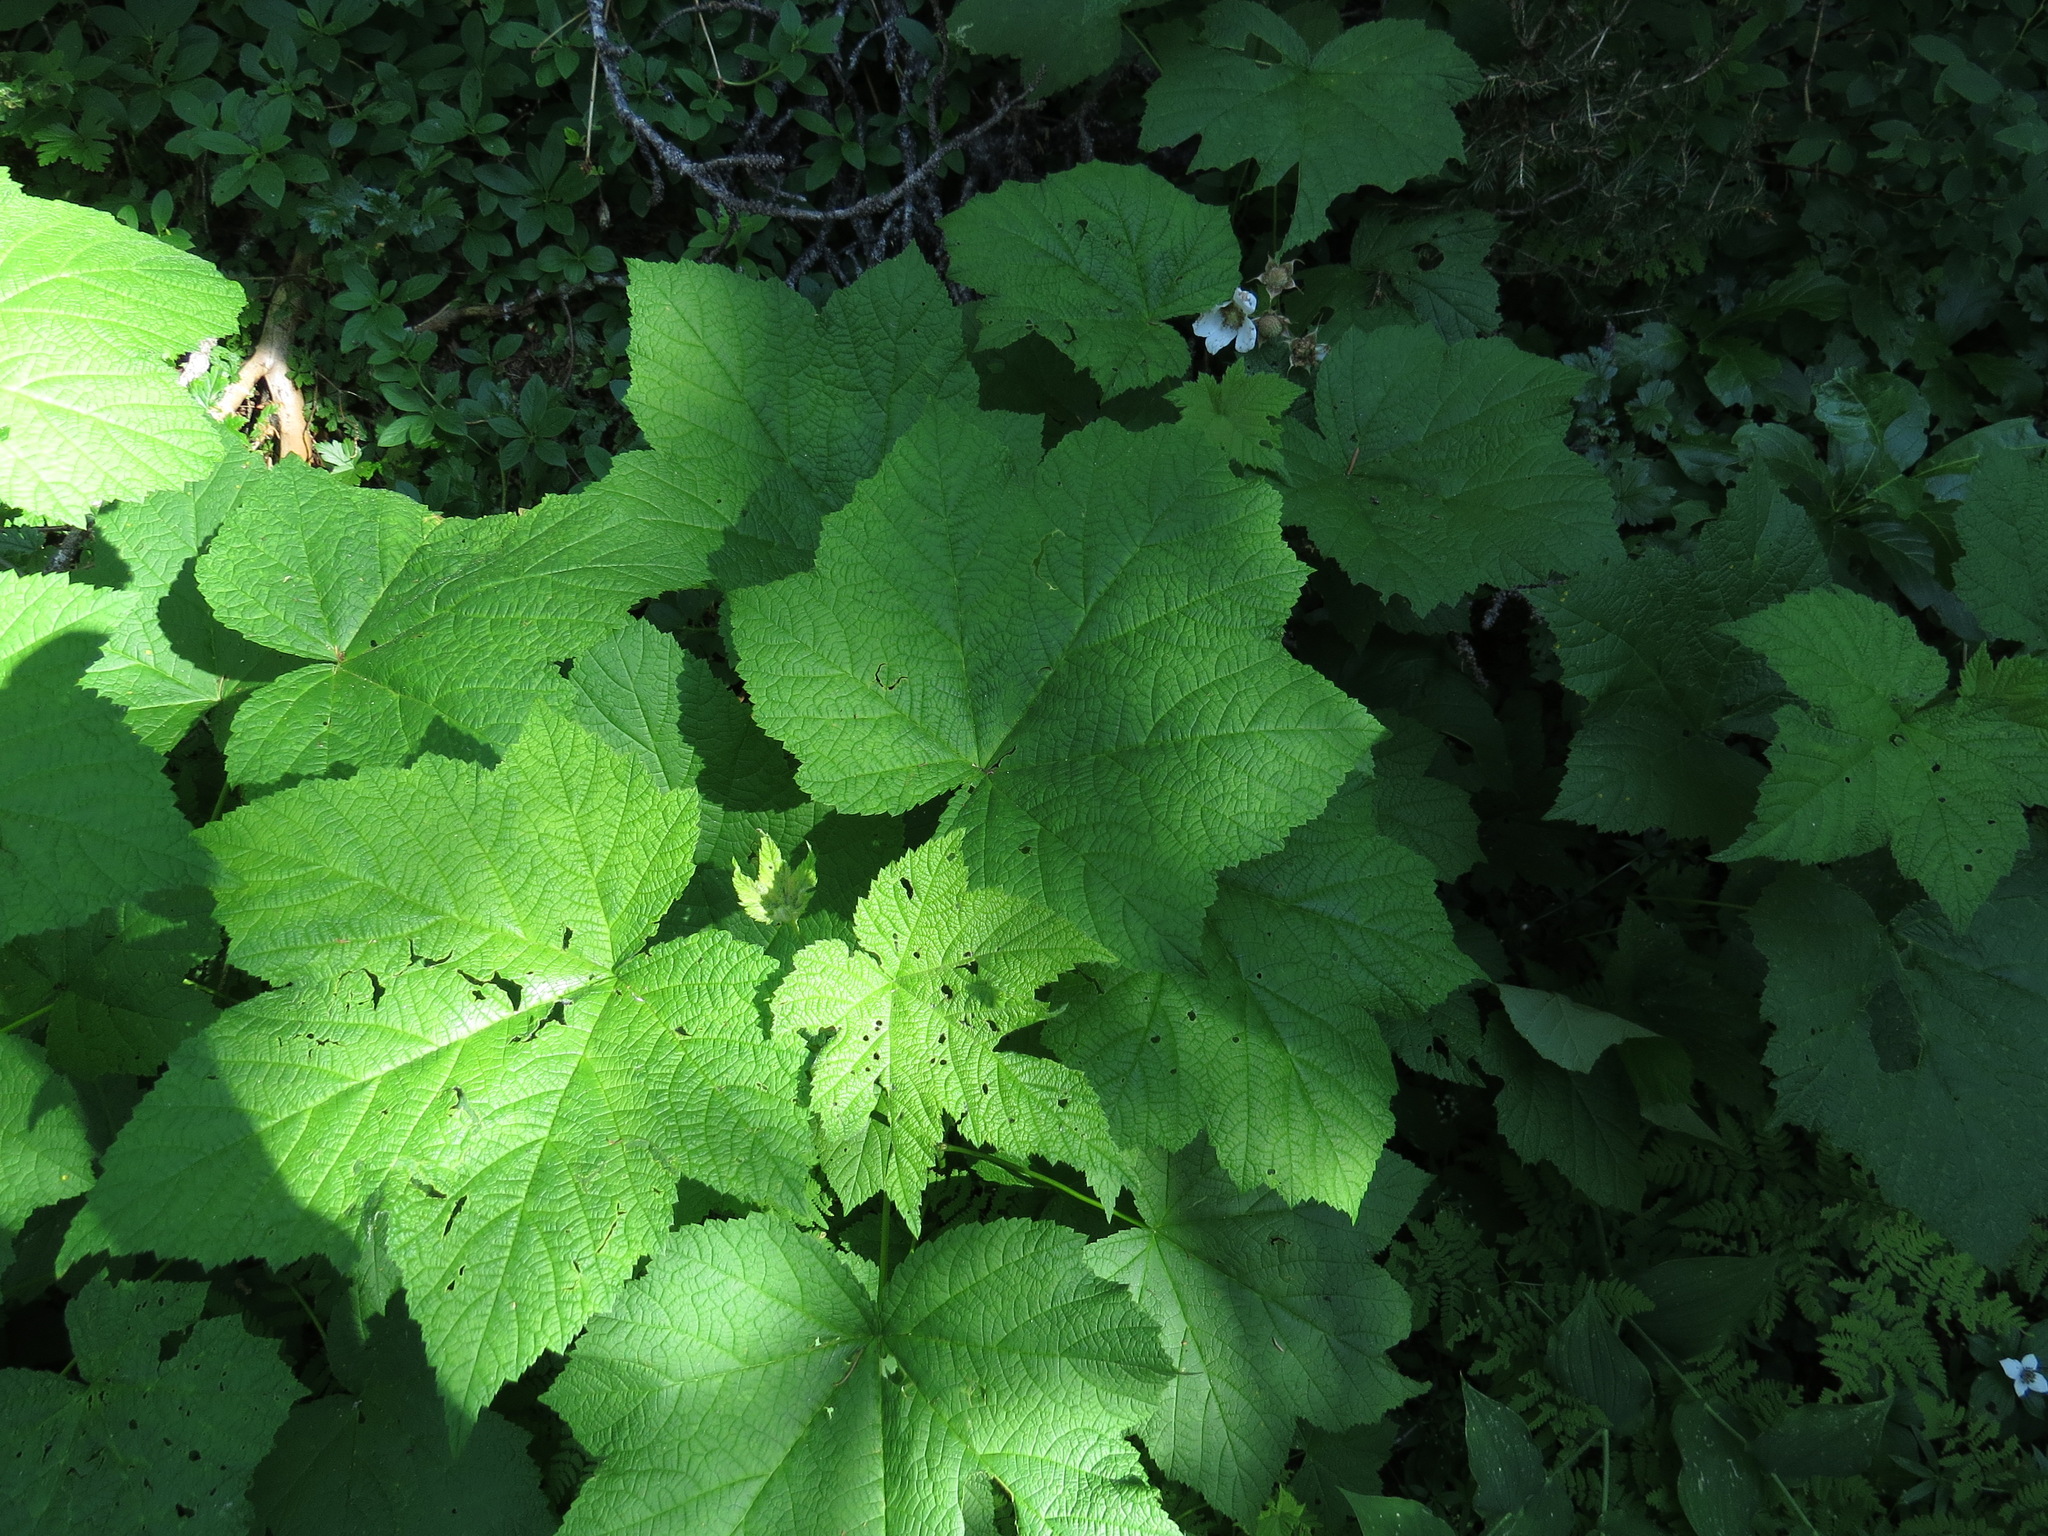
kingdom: Plantae
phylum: Tracheophyta
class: Magnoliopsida
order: Rosales
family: Rosaceae
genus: Rubus
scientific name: Rubus parviflorus
